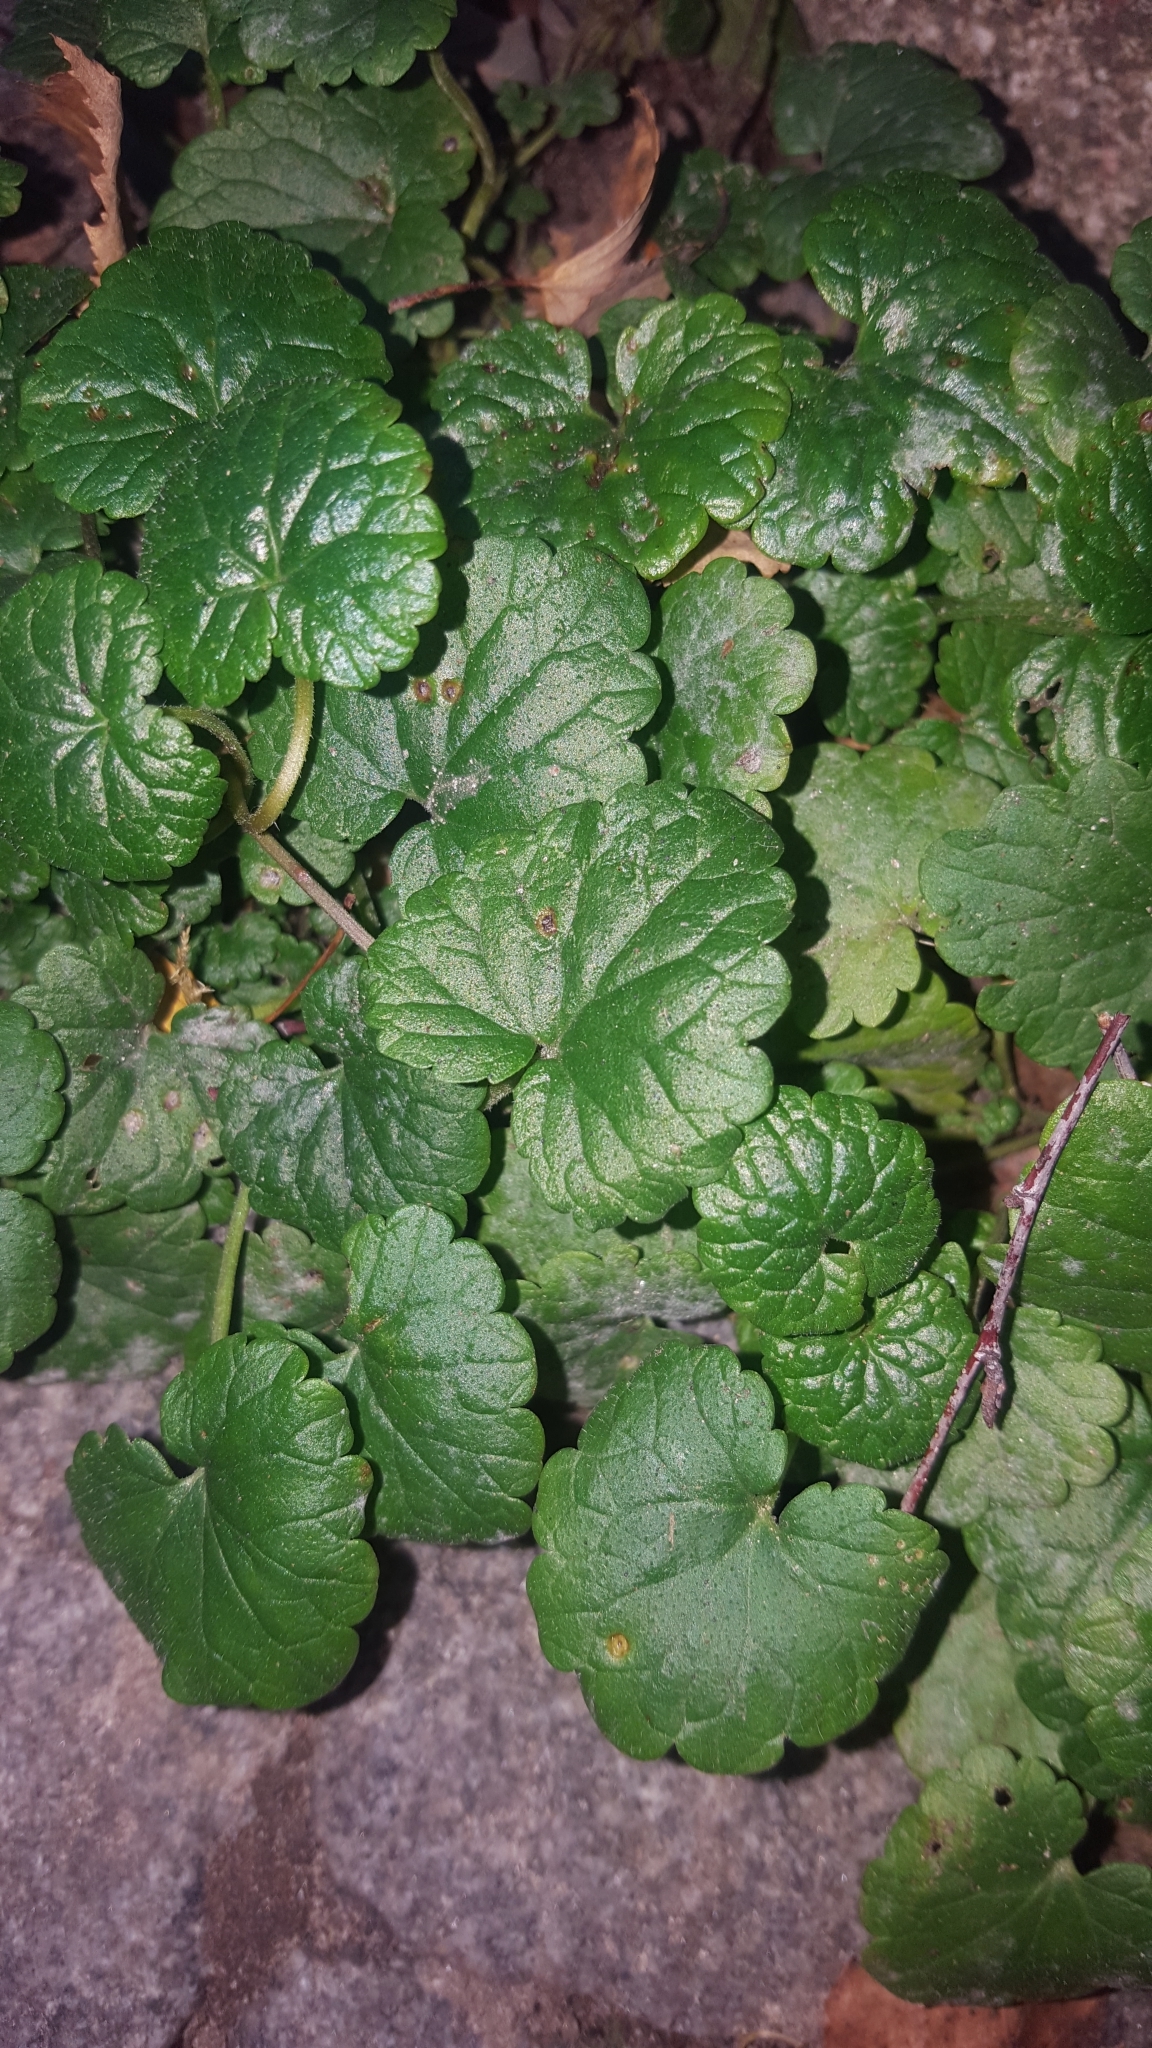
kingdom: Plantae
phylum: Tracheophyta
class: Magnoliopsida
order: Lamiales
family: Lamiaceae
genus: Glechoma
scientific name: Glechoma hederacea
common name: Ground ivy
